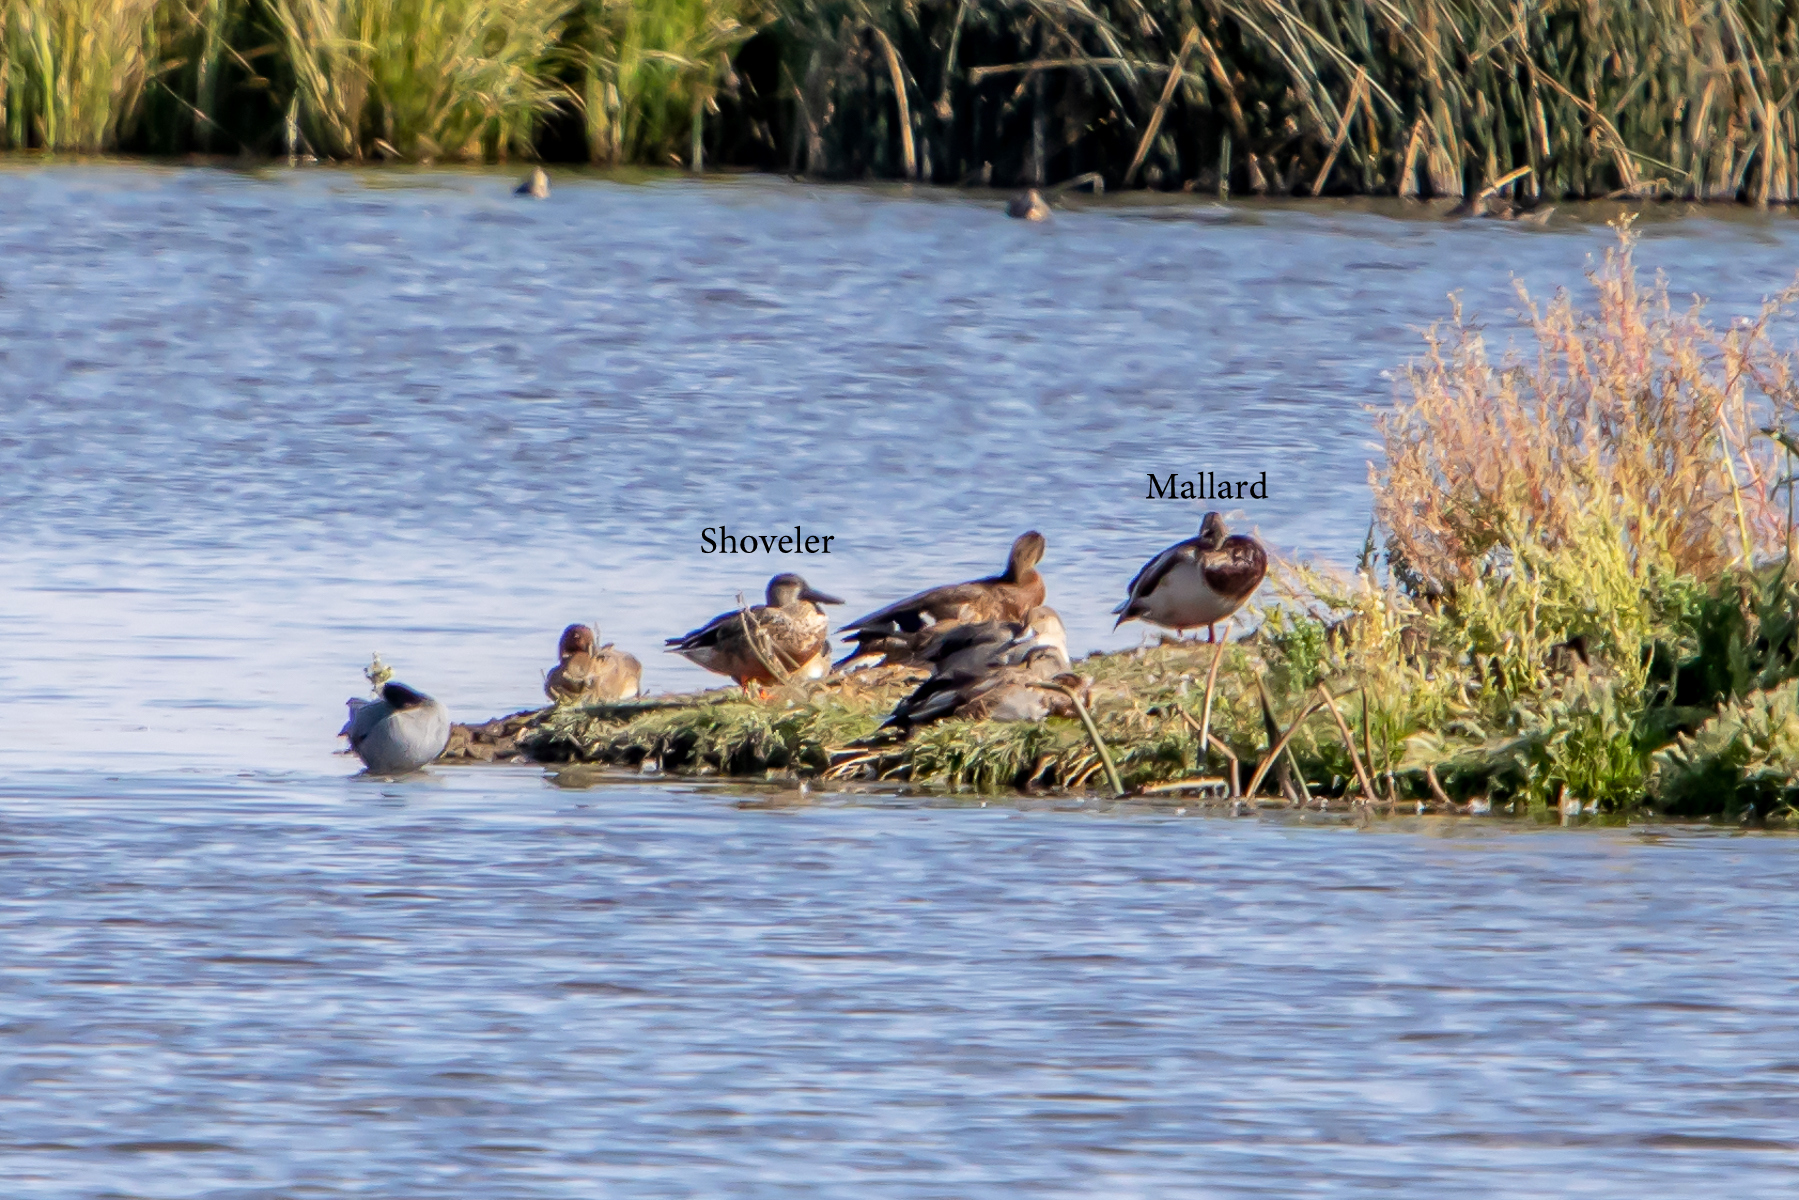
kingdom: Animalia
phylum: Chordata
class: Aves
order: Anseriformes
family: Anatidae
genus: Spatula
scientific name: Spatula clypeata
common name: Northern shoveler
